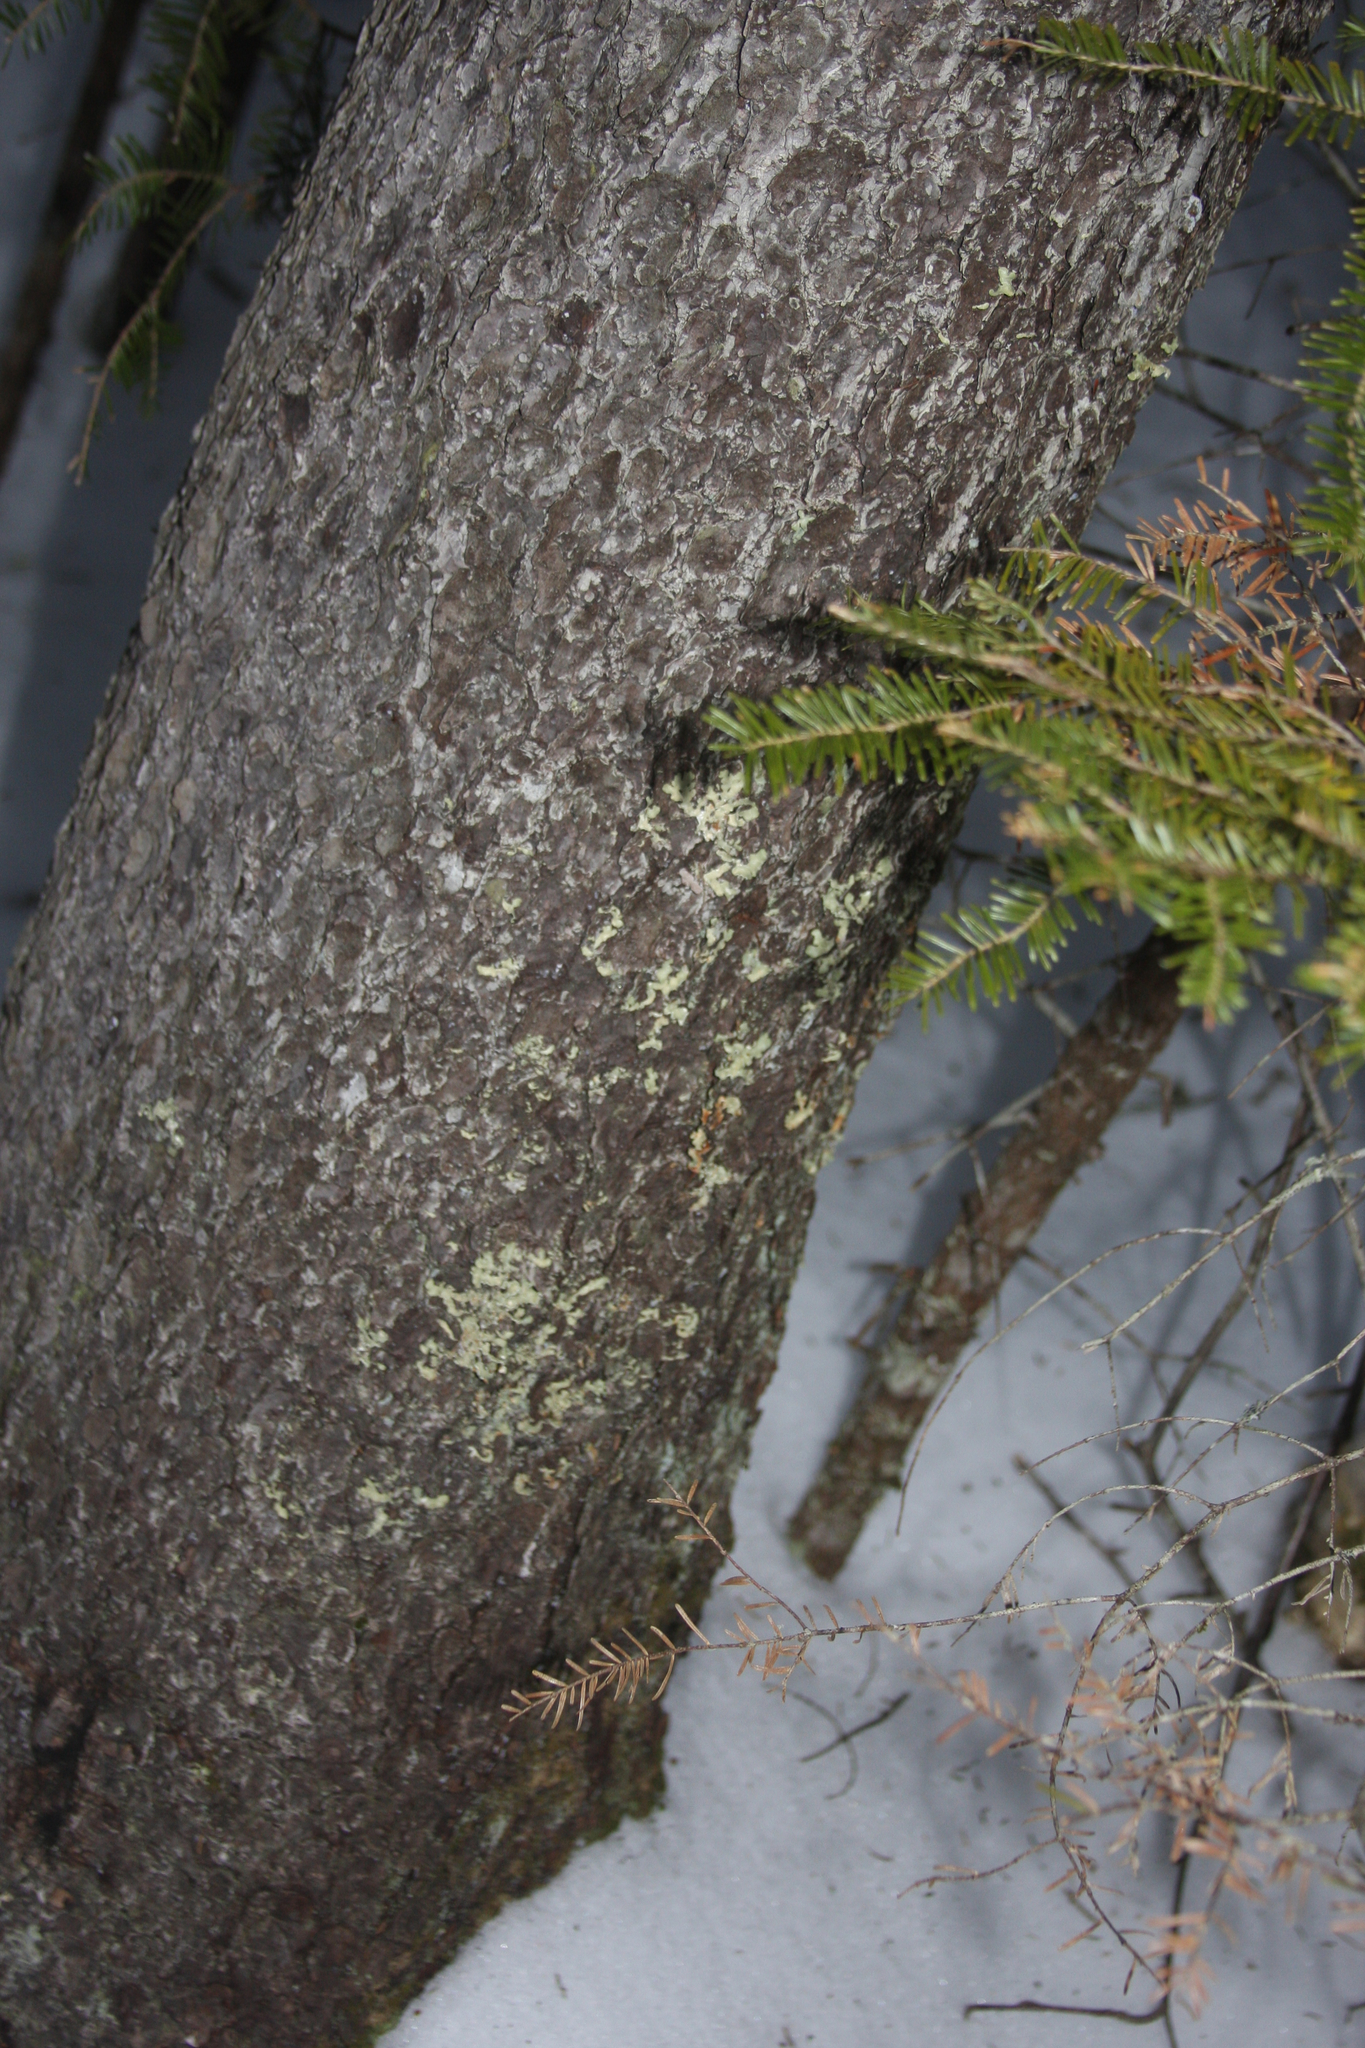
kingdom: Plantae
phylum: Tracheophyta
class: Pinopsida
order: Pinales
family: Pinaceae
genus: Tsuga
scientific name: Tsuga canadensis
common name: Eastern hemlock
